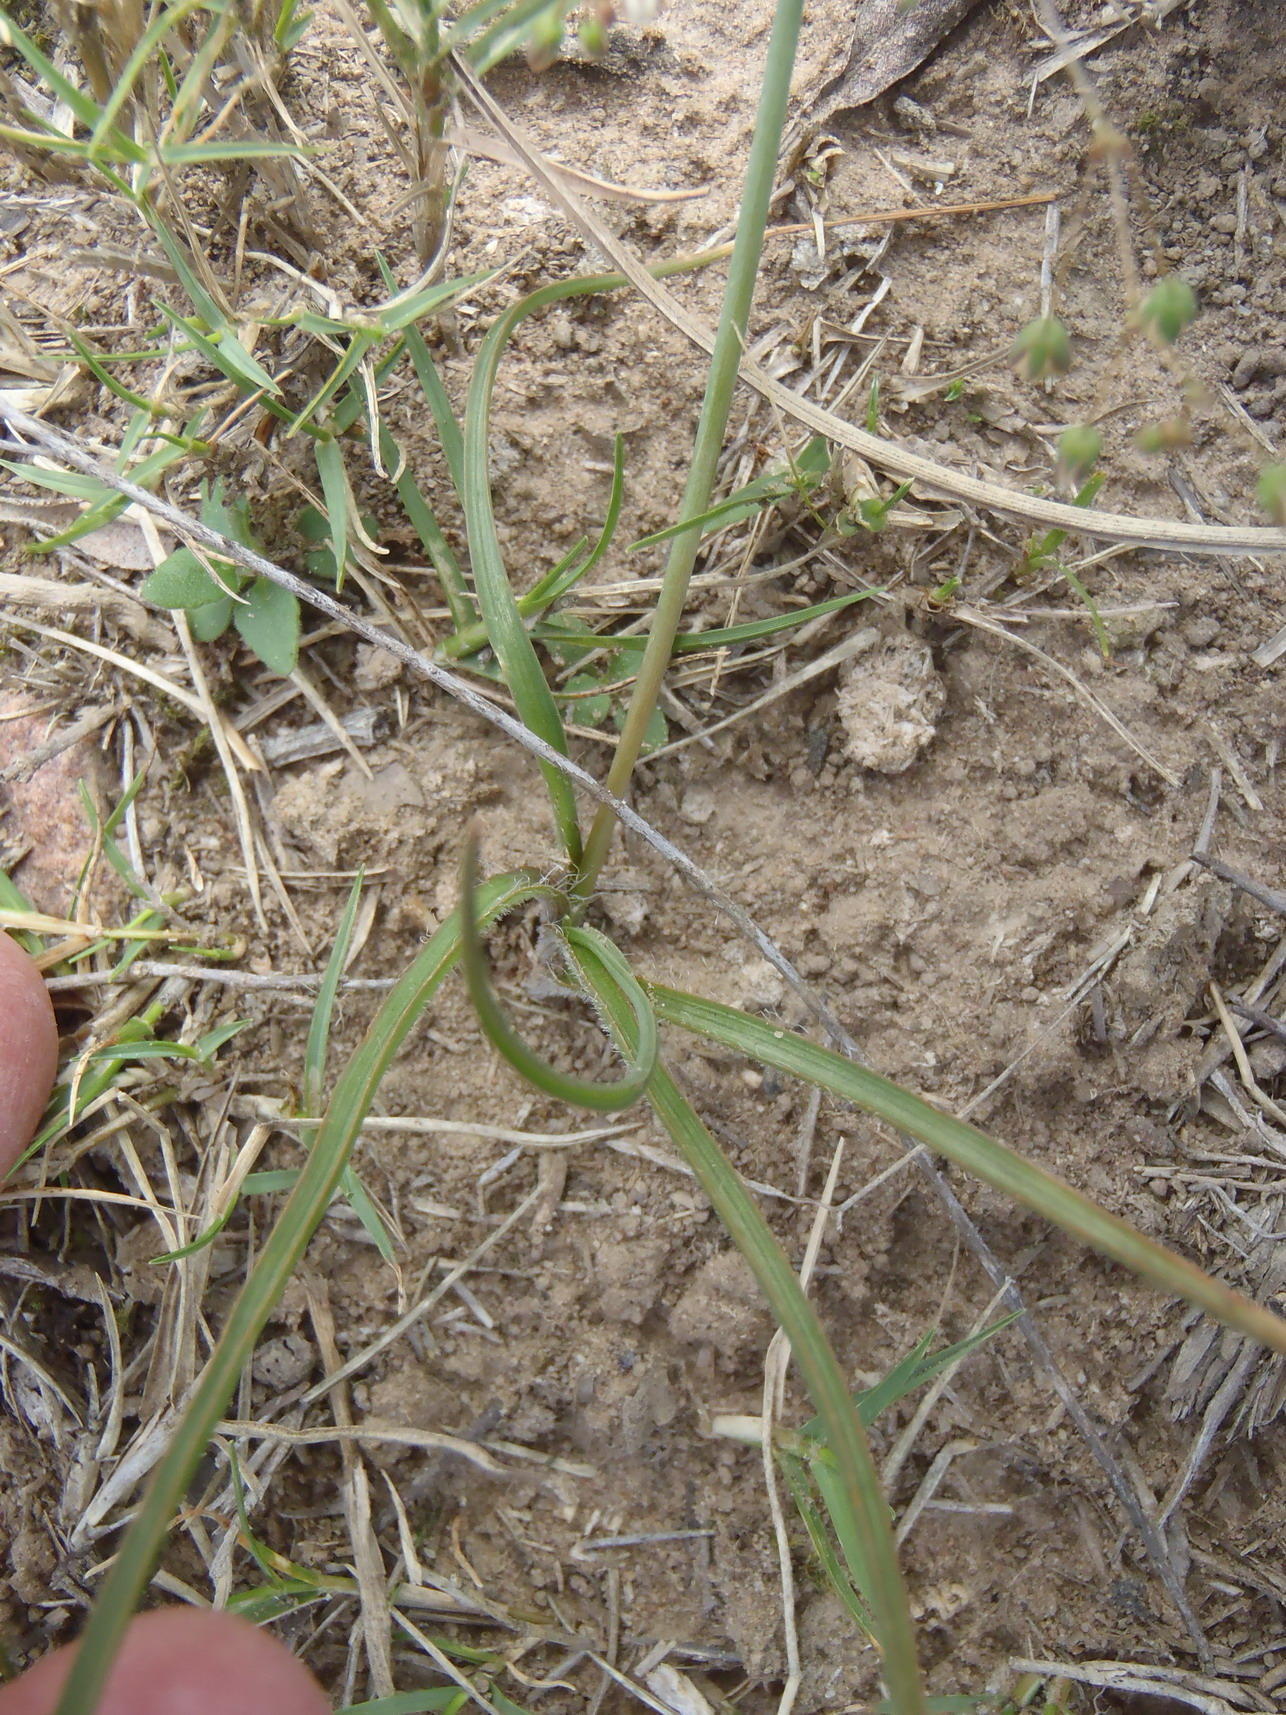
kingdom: Plantae
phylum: Tracheophyta
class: Liliopsida
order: Asparagales
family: Asparagaceae
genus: Dipcadi
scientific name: Dipcadi ciliare
